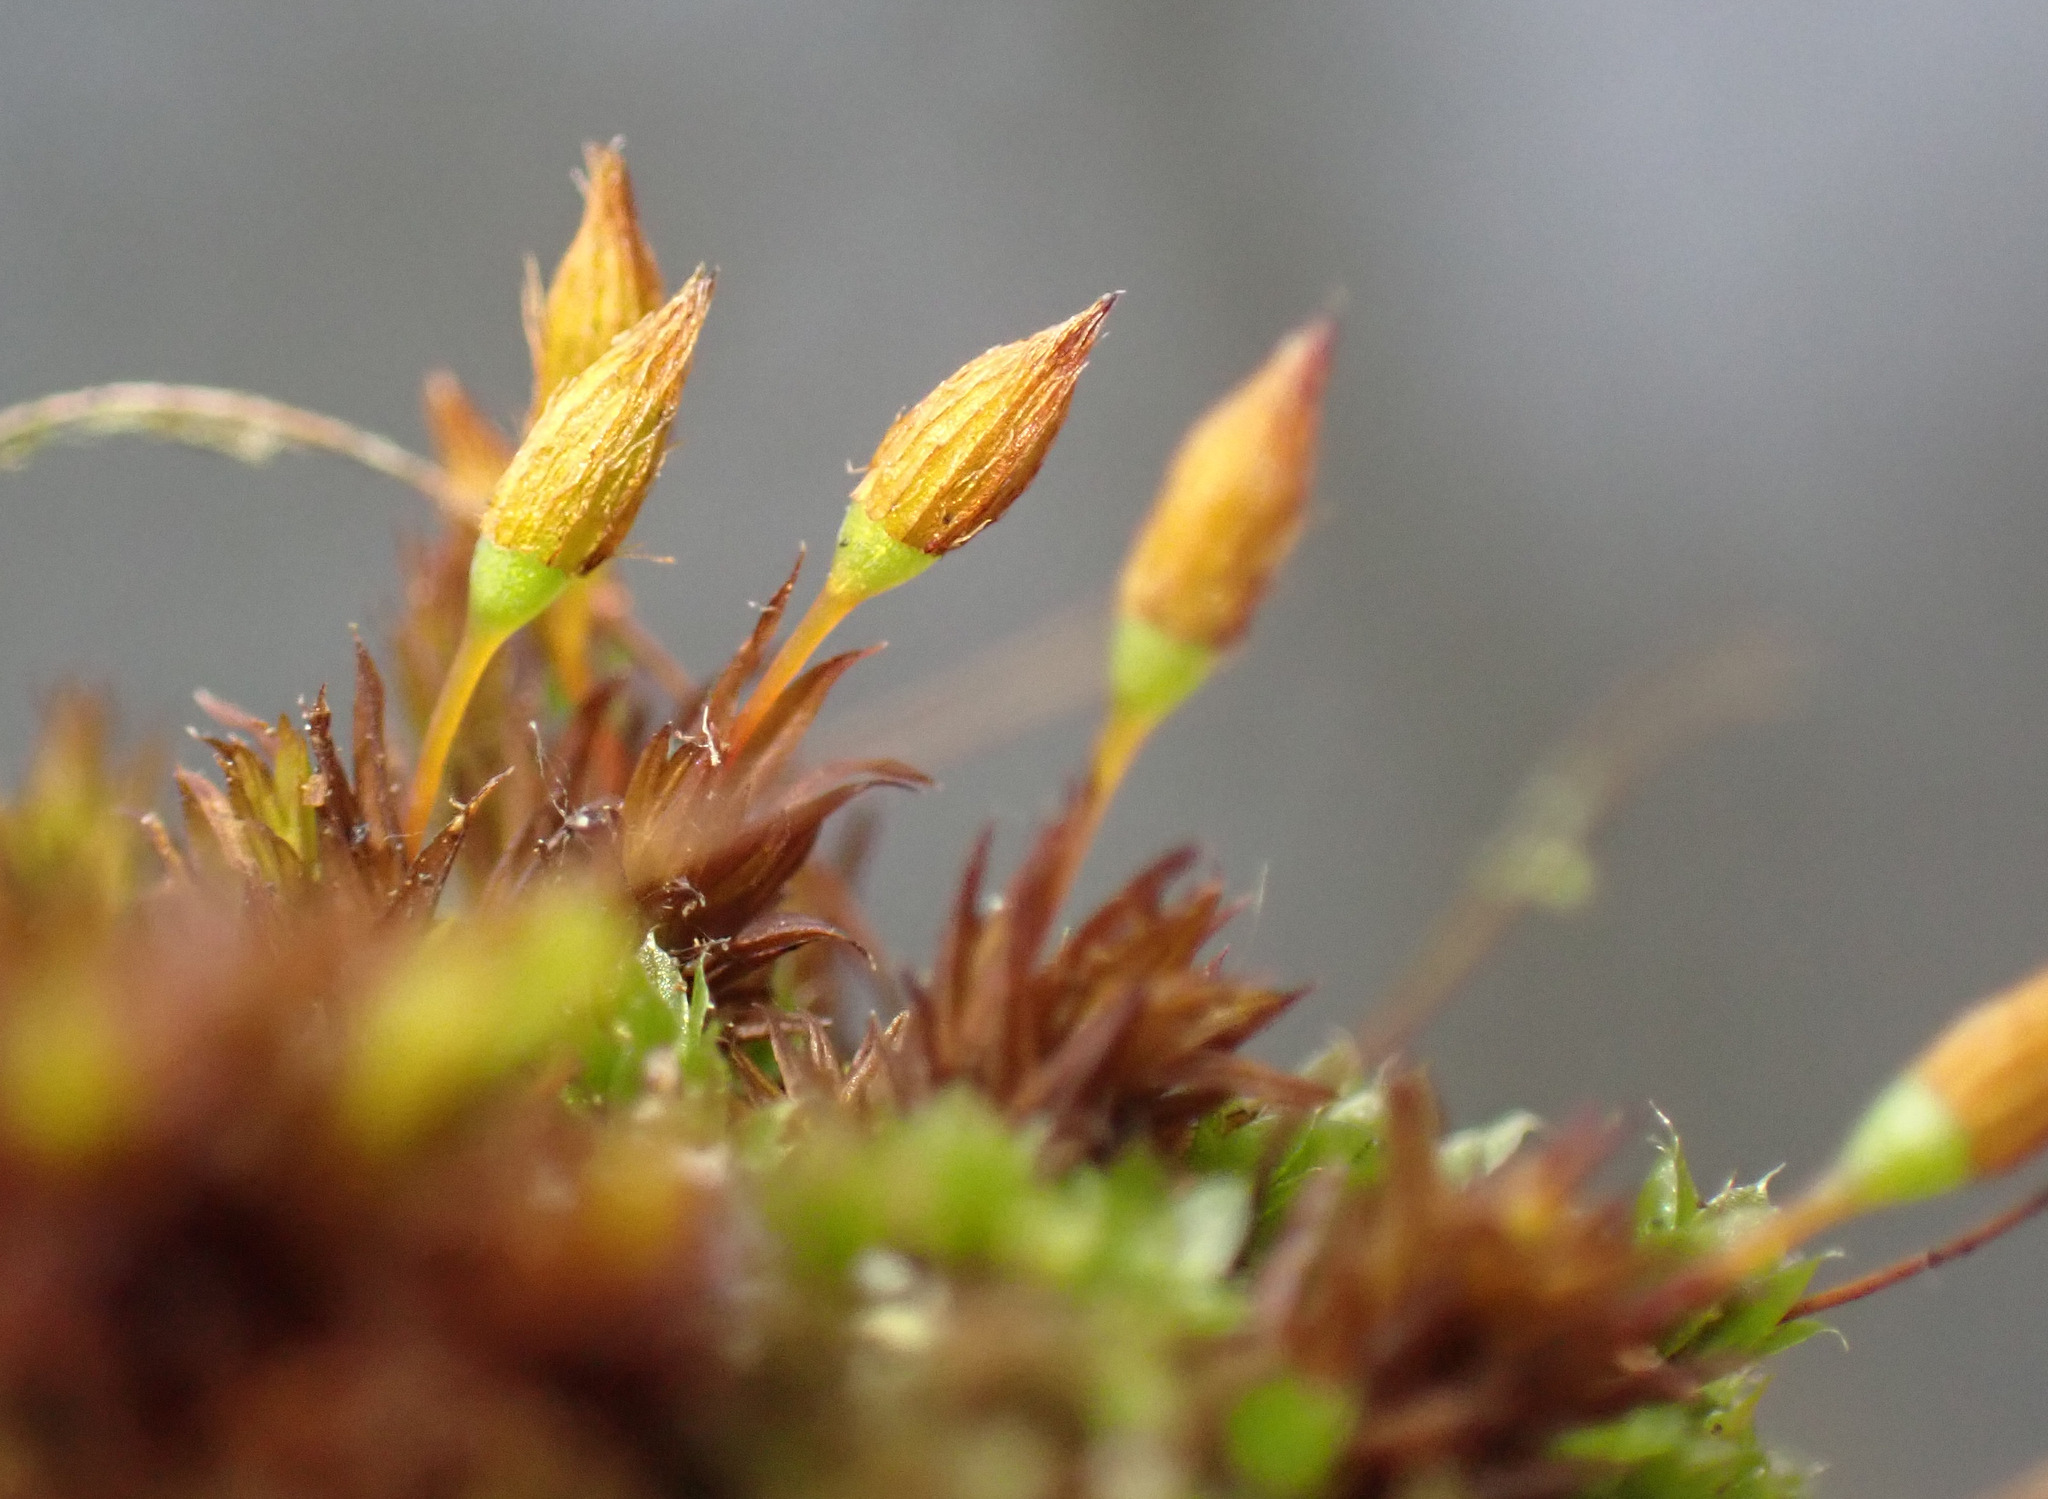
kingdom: Plantae
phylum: Bryophyta
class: Bryopsida
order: Orthotrichales
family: Orthotrichaceae
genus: Orthotrichum
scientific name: Orthotrichum anomalum
